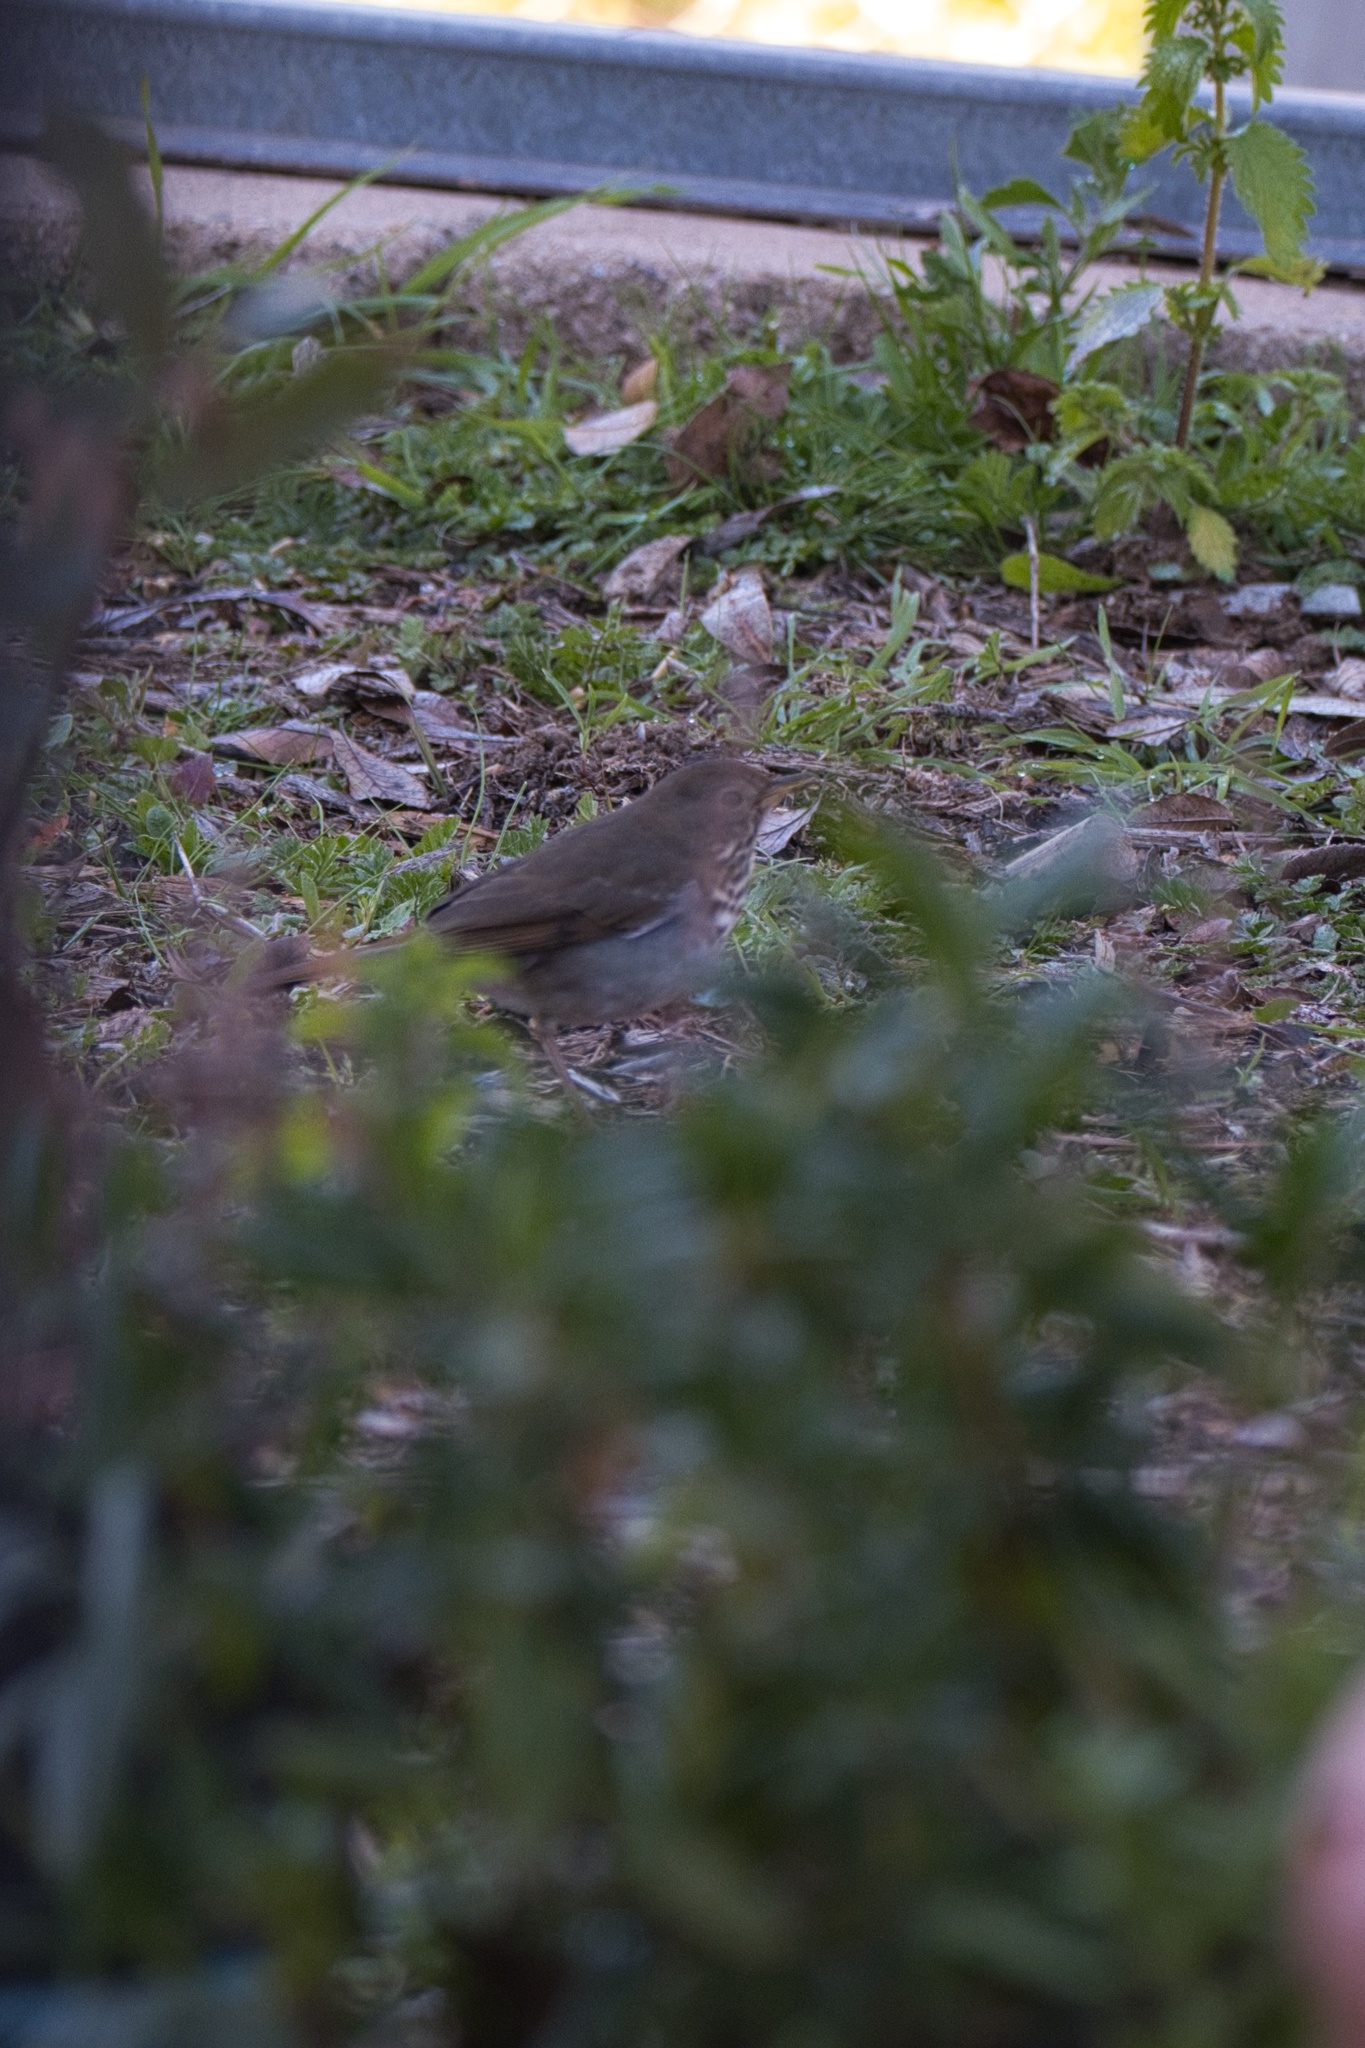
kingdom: Animalia
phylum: Chordata
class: Aves
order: Passeriformes
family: Turdidae
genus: Catharus
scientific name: Catharus guttatus
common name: Hermit thrush
